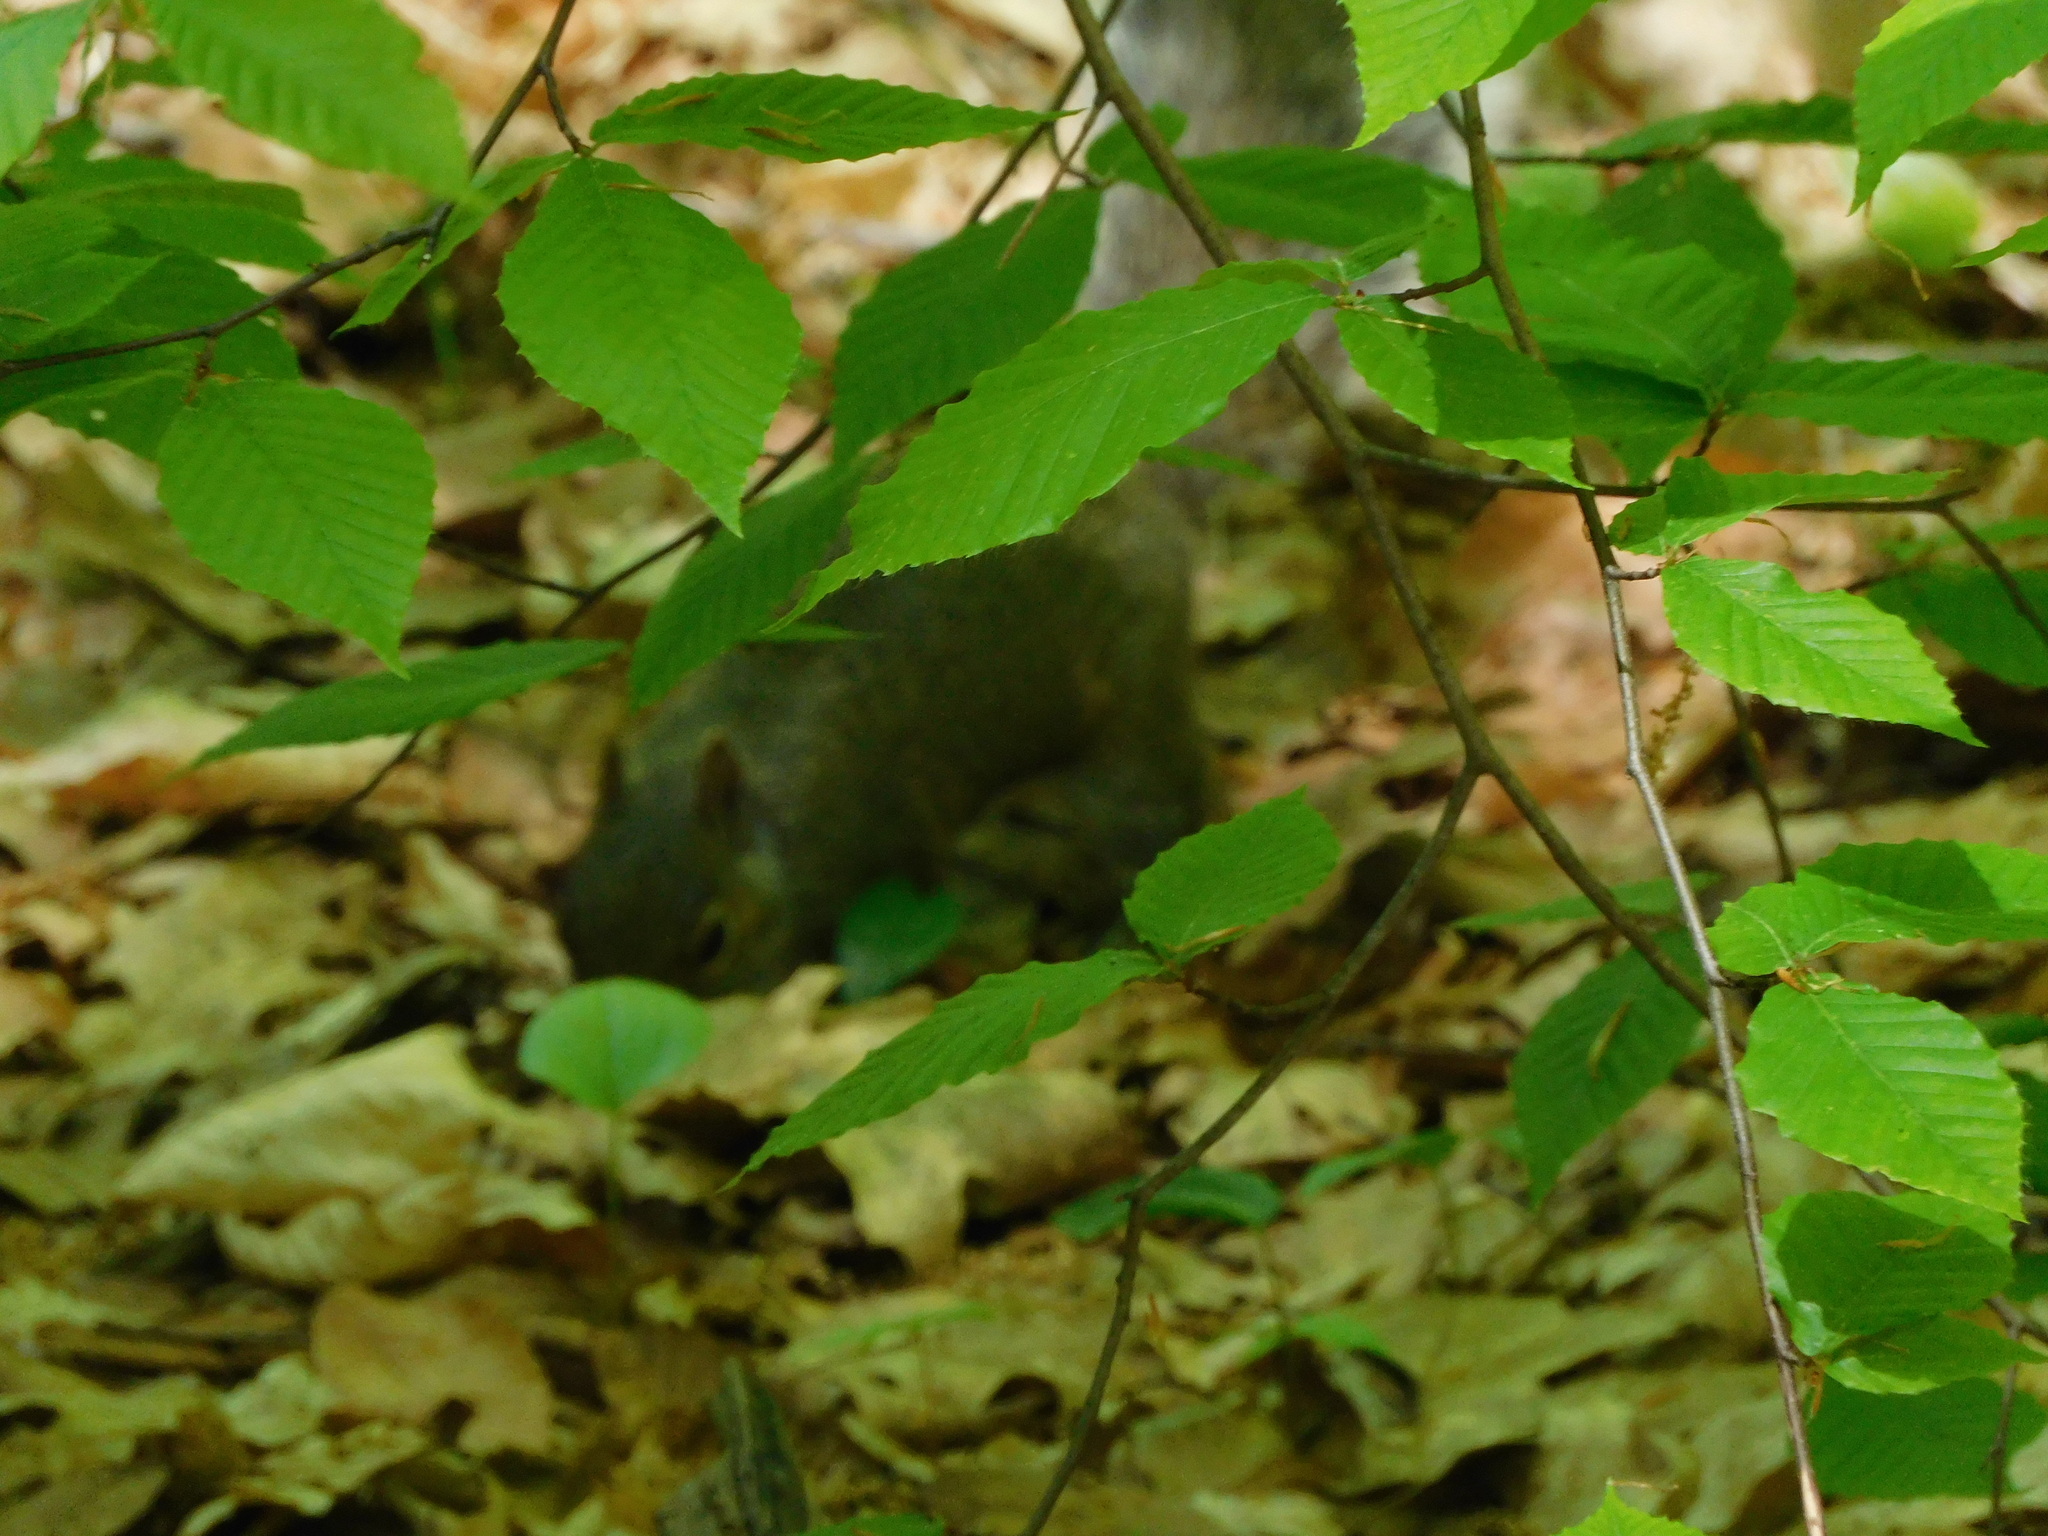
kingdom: Animalia
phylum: Chordata
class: Mammalia
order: Rodentia
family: Sciuridae
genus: Sciurus
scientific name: Sciurus carolinensis
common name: Eastern gray squirrel
